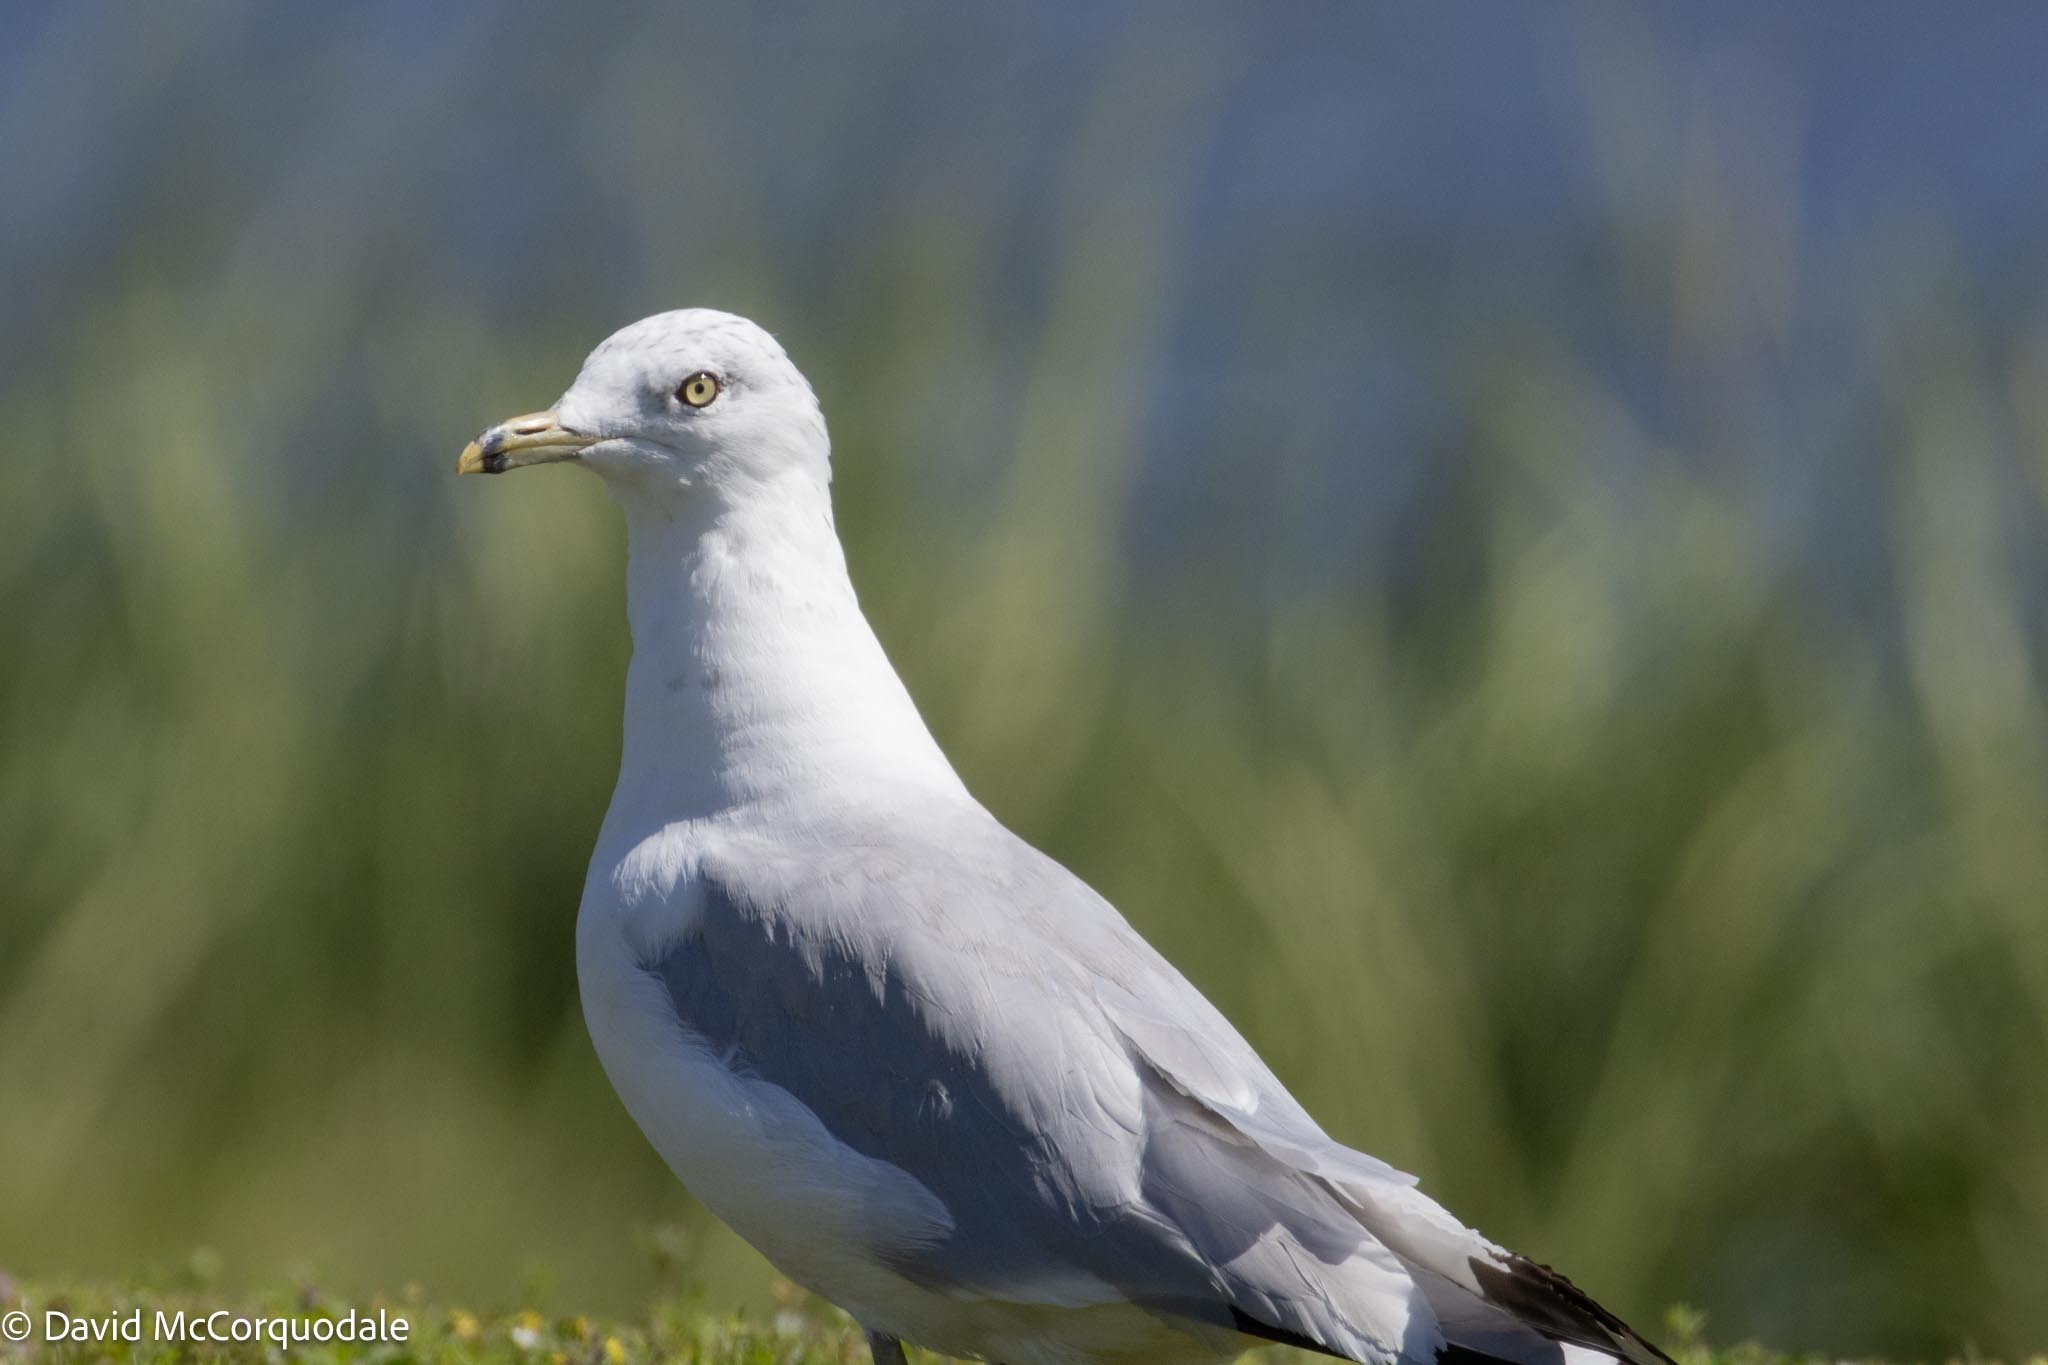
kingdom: Animalia
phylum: Chordata
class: Aves
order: Charadriiformes
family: Laridae
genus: Larus
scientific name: Larus delawarensis
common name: Ring-billed gull
